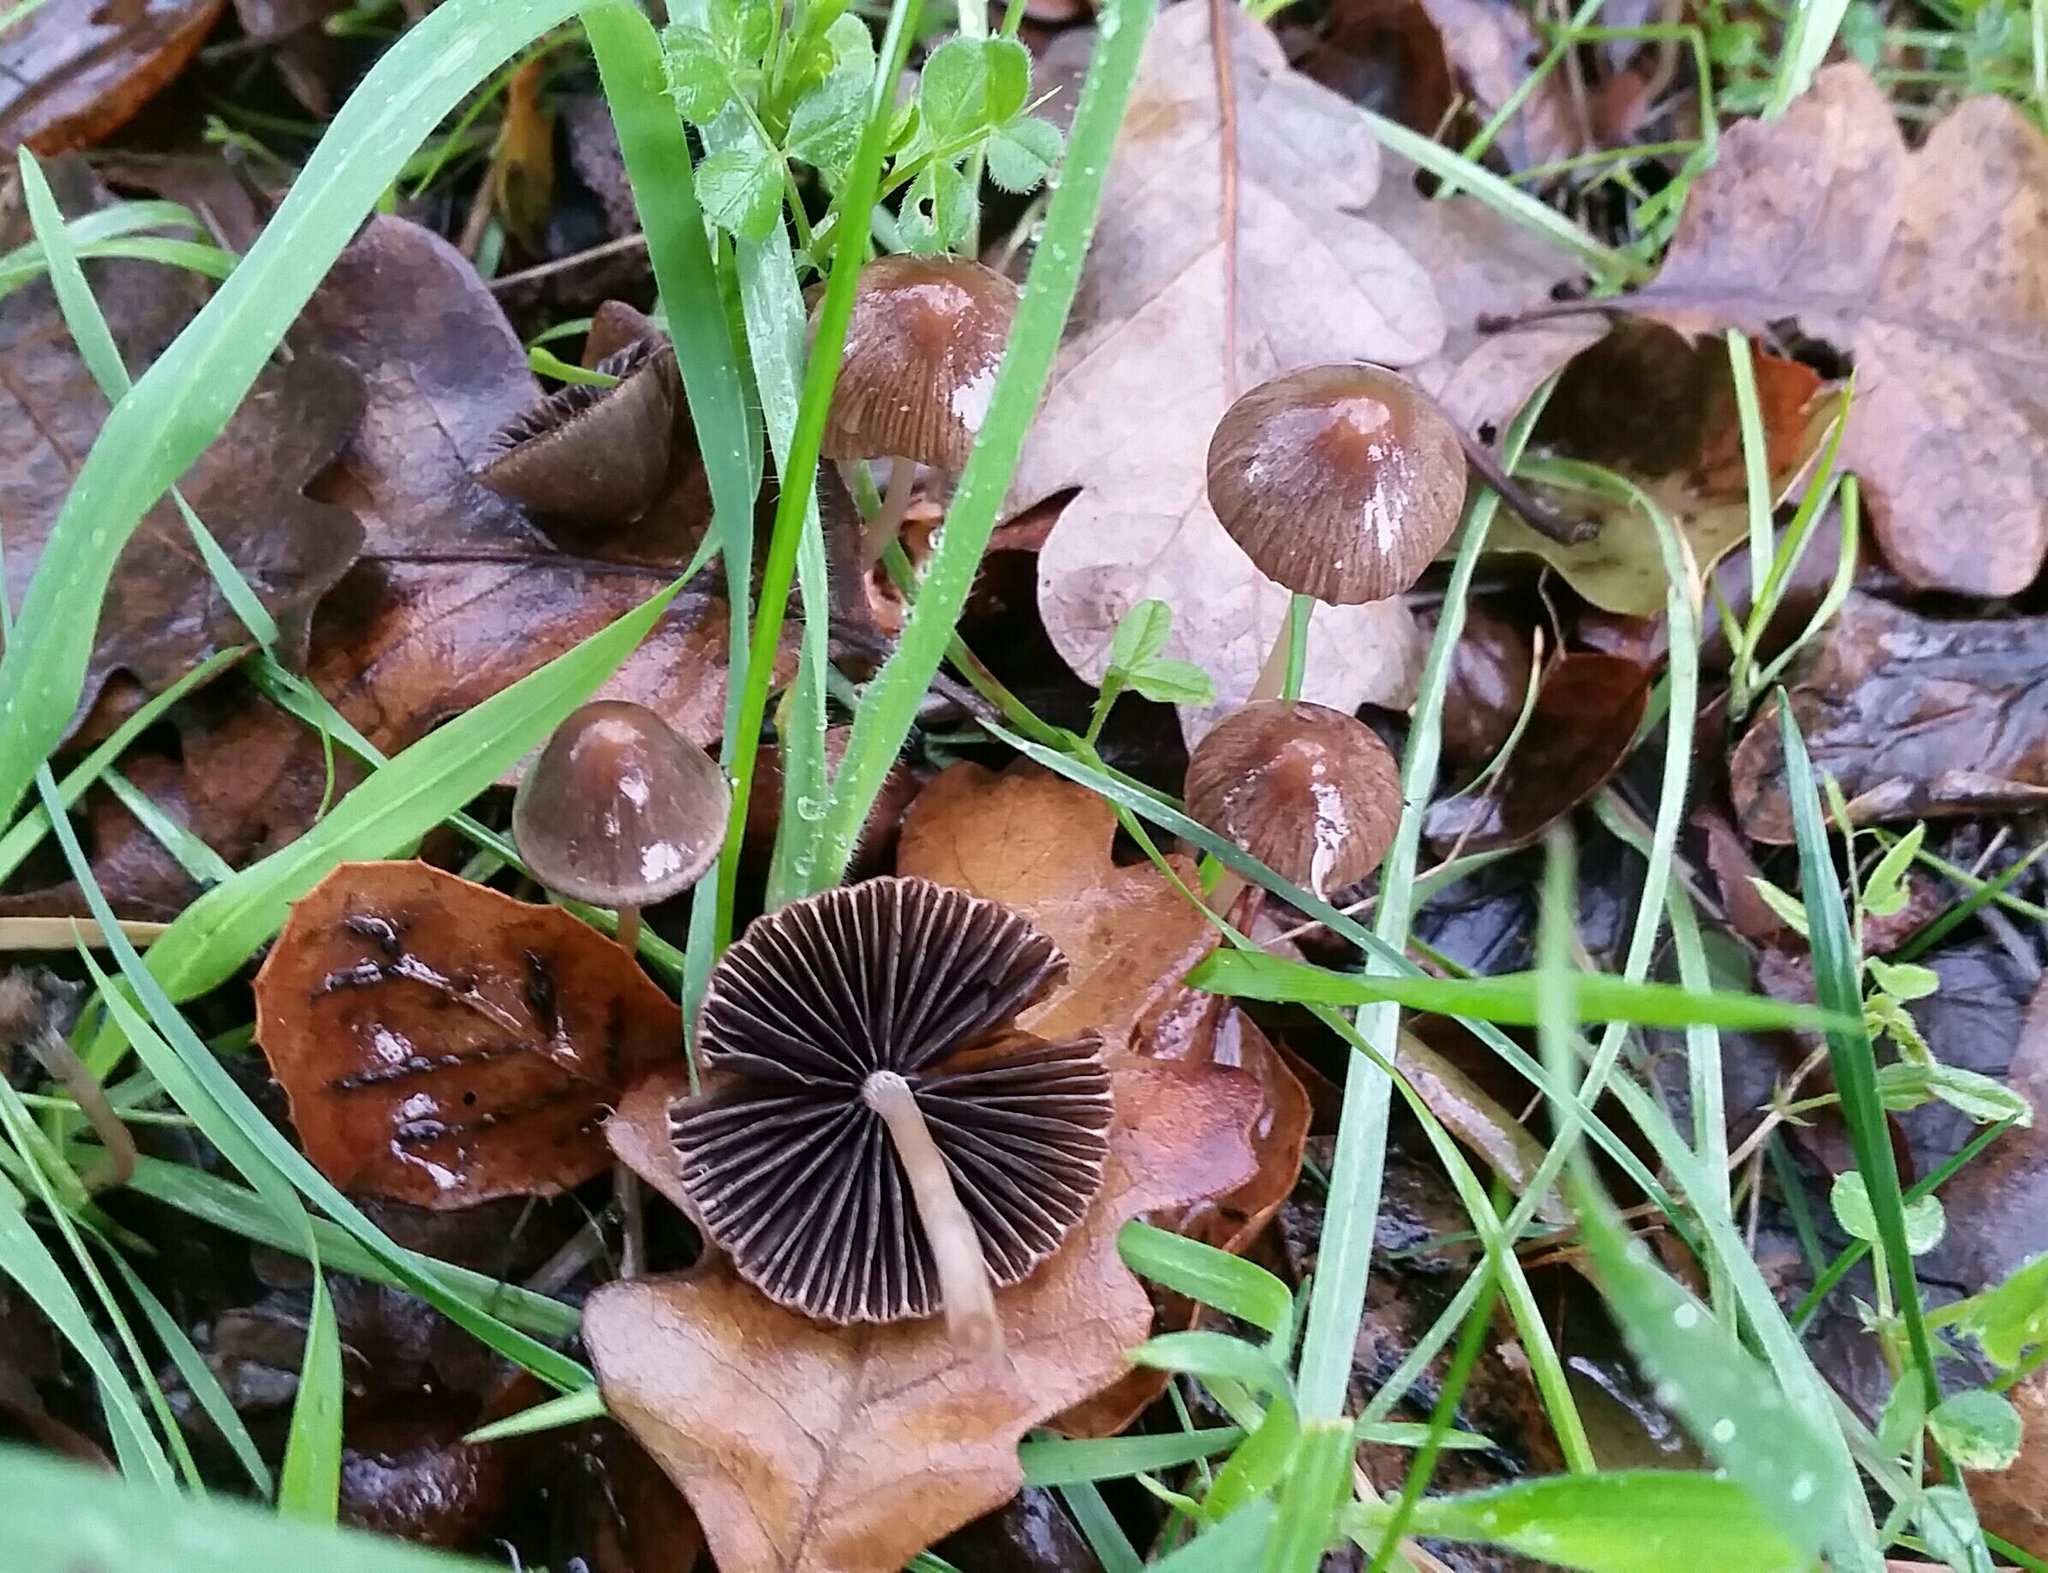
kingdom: Fungi
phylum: Basidiomycota
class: Agaricomycetes
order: Agaricales
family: Psathyrellaceae
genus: Psathyrella
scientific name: Psathyrella corrugis
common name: Red edge brittlestem
